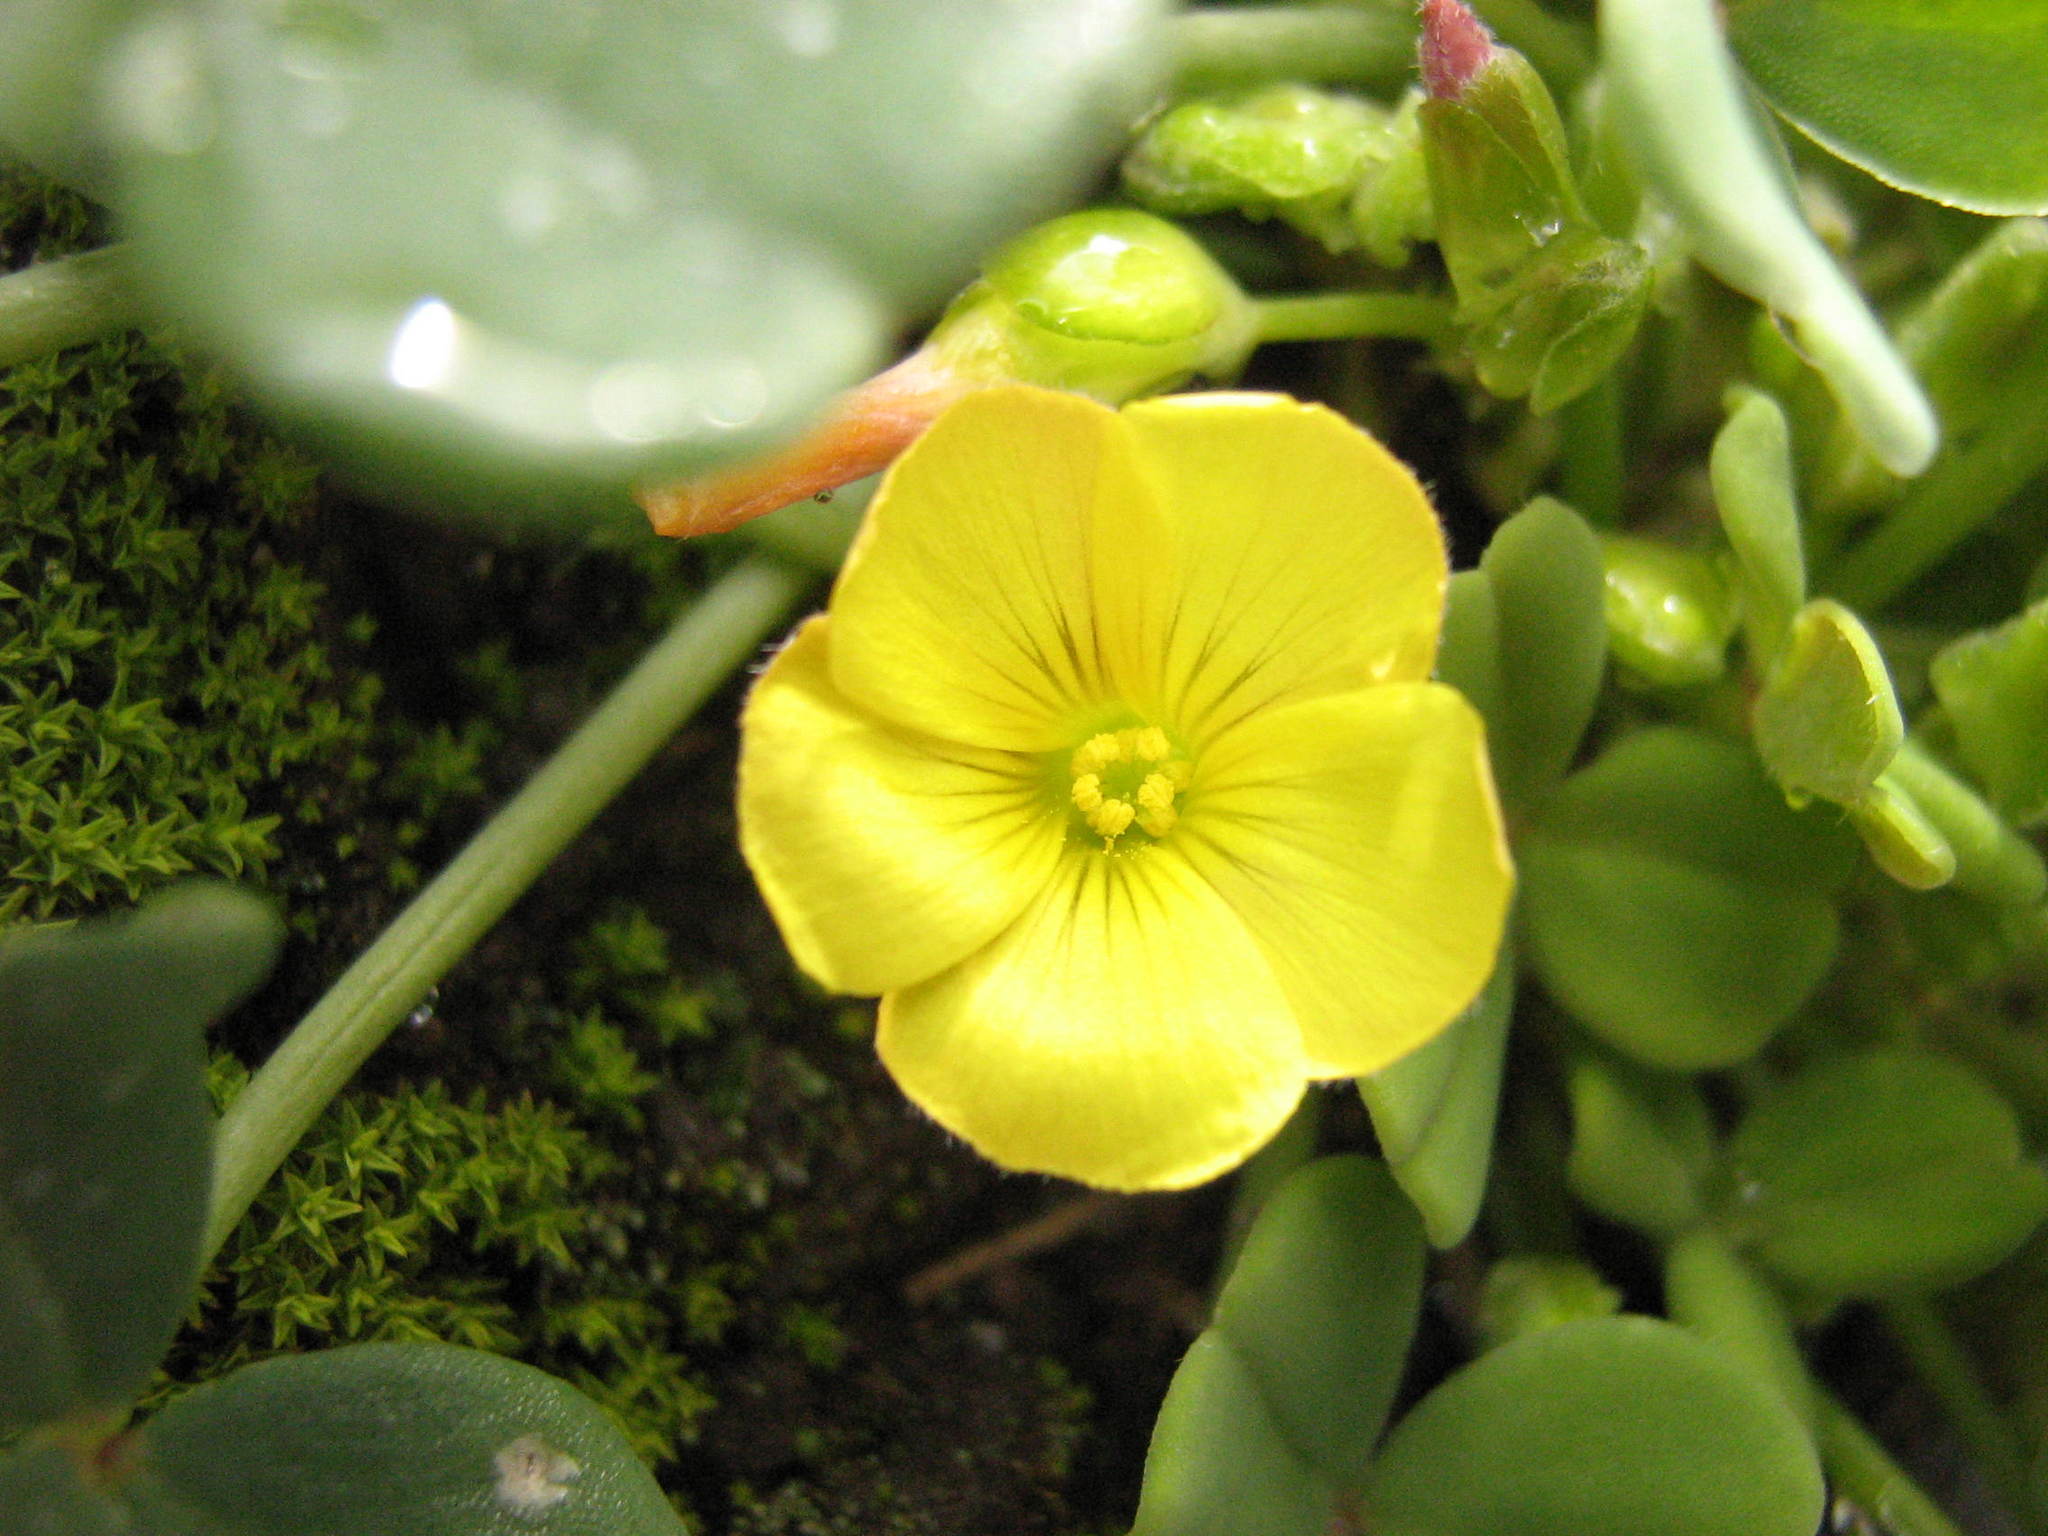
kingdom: Plantae
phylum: Tracheophyta
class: Magnoliopsida
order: Oxalidales
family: Oxalidaceae
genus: Oxalis
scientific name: Oxalis megalorrhiza
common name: Fleshy yellow-sorrel
